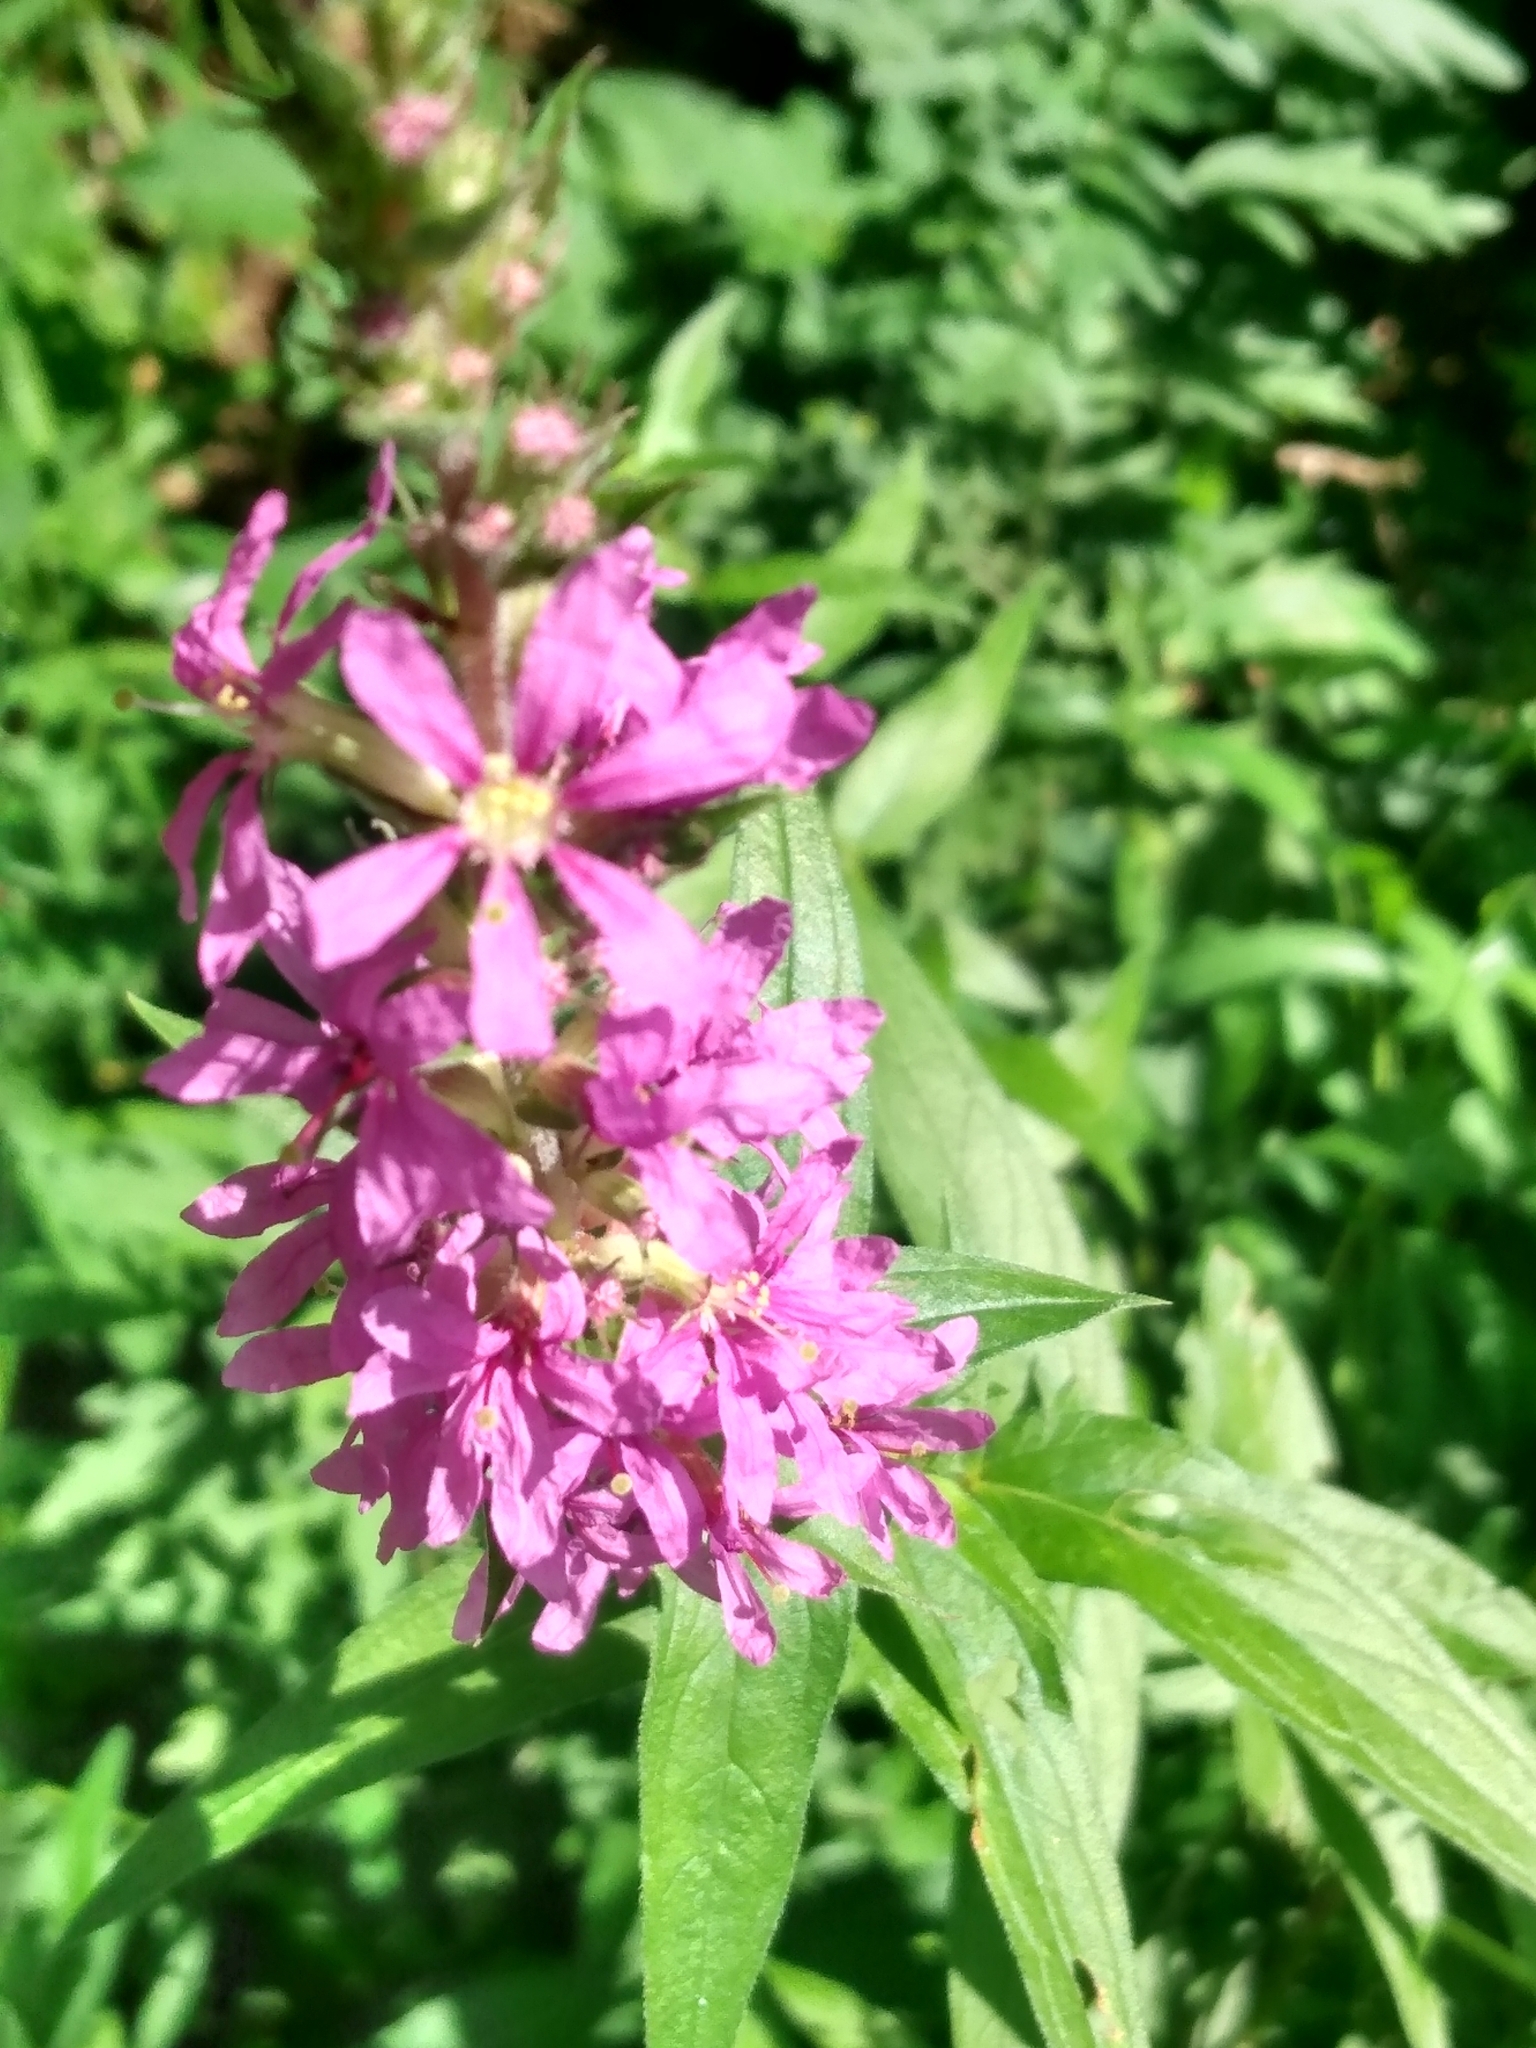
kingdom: Plantae
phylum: Tracheophyta
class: Magnoliopsida
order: Myrtales
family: Lythraceae
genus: Lythrum
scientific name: Lythrum salicaria
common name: Purple loosestrife
